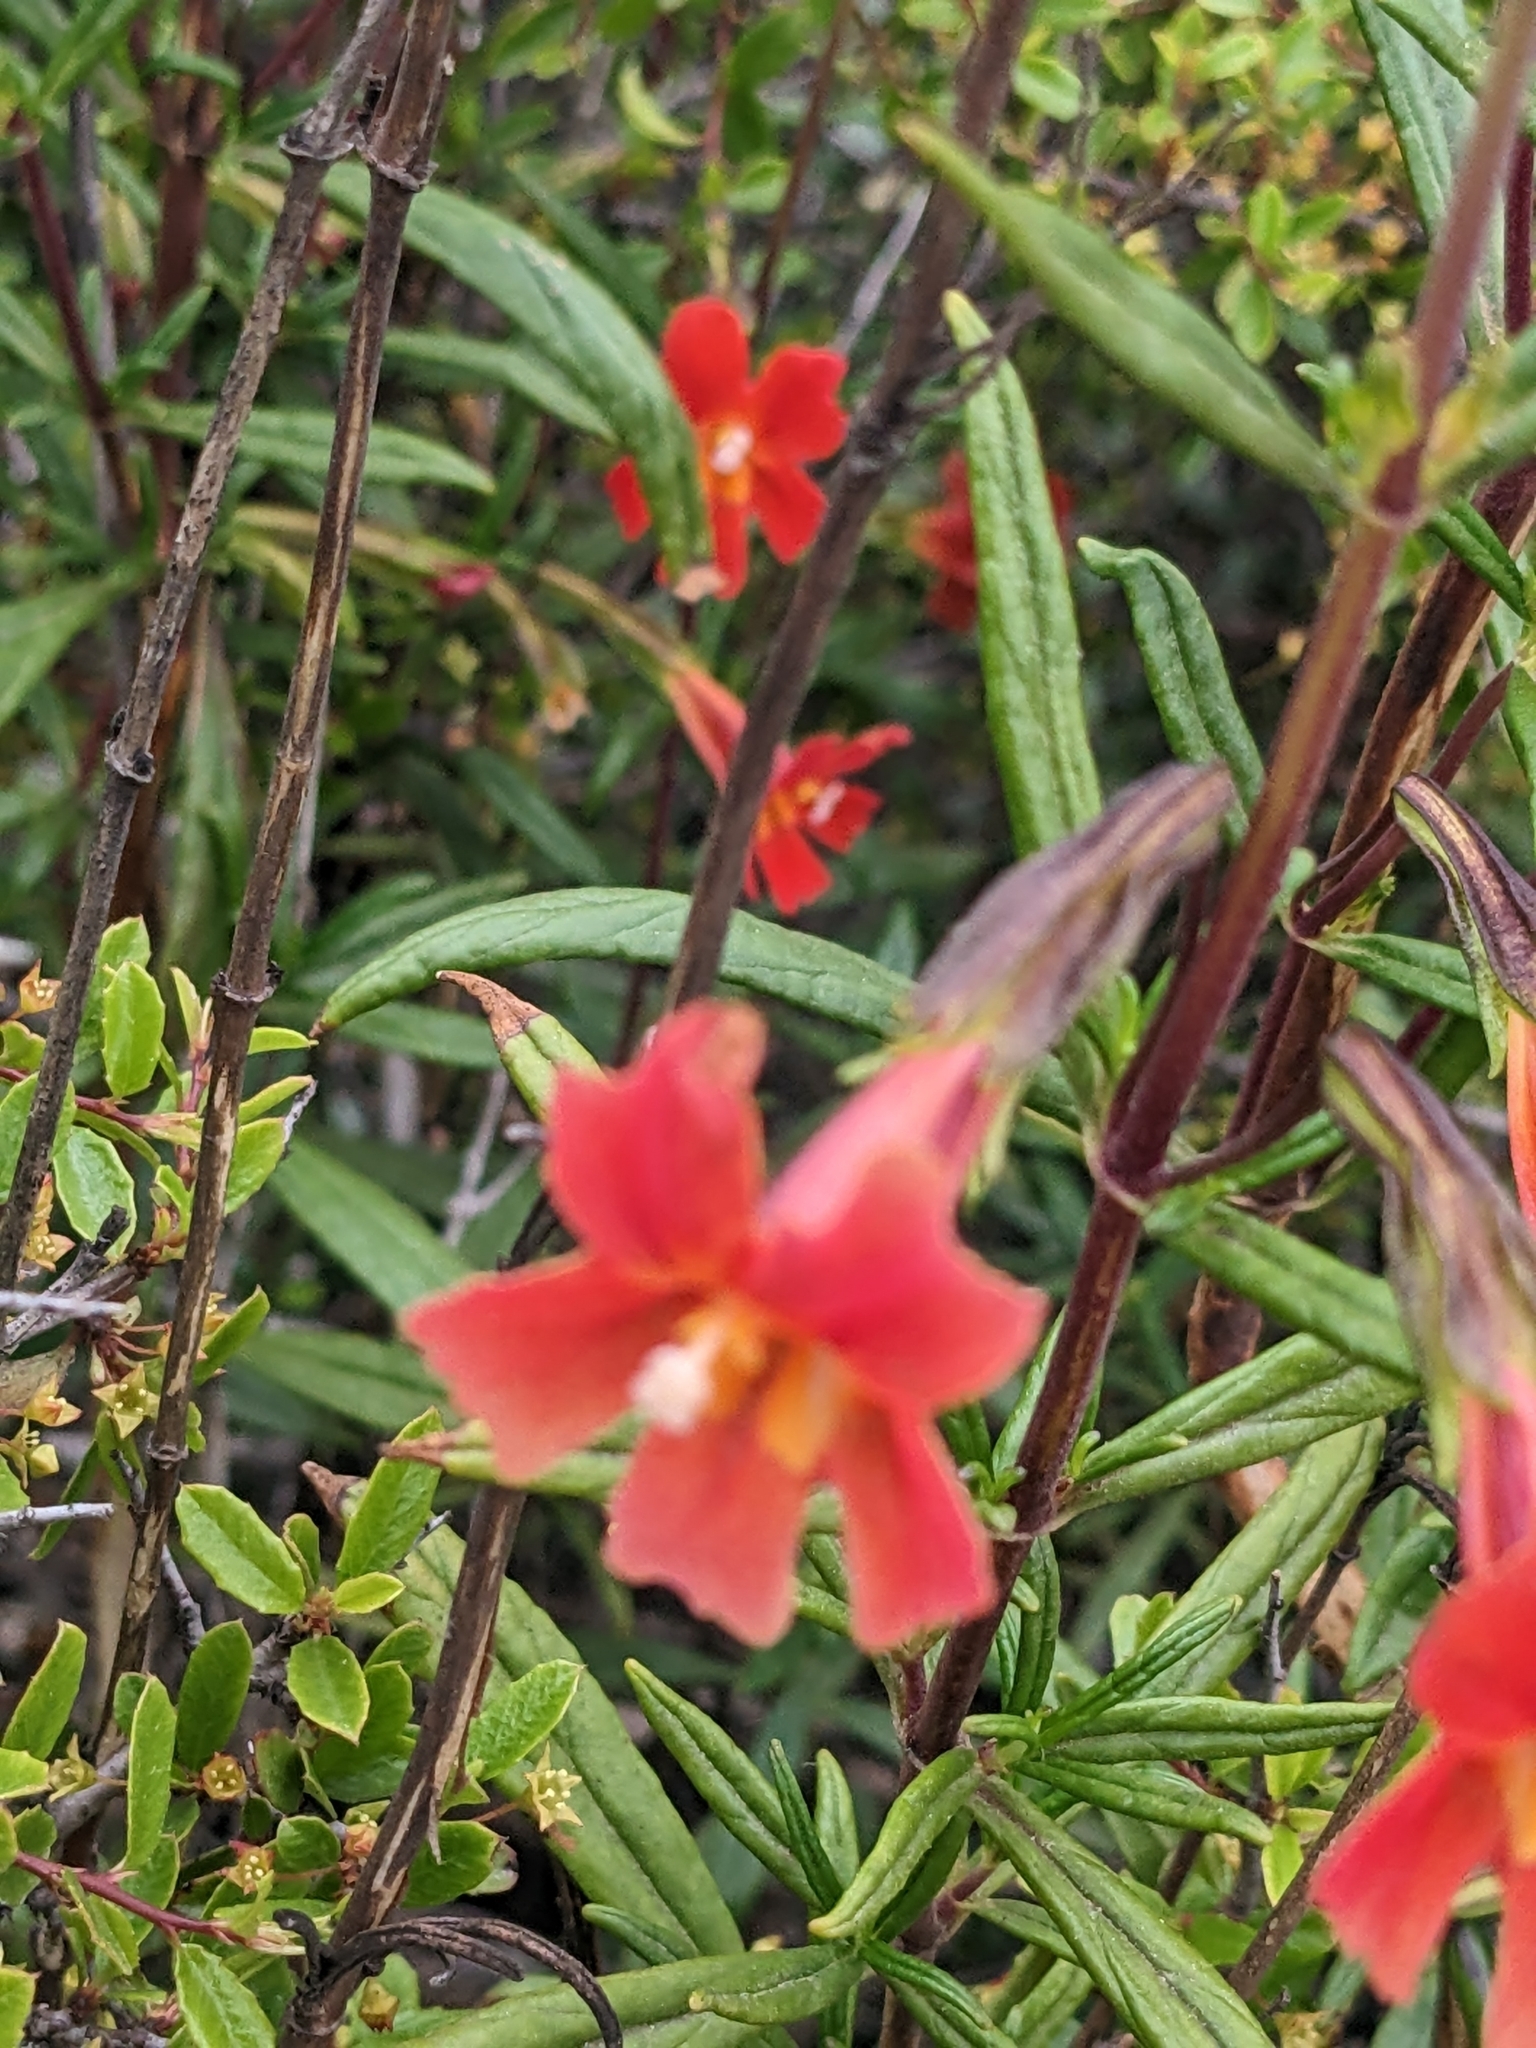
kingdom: Plantae
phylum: Tracheophyta
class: Magnoliopsida
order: Lamiales
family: Phrymaceae
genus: Diplacus
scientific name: Diplacus puniceus
